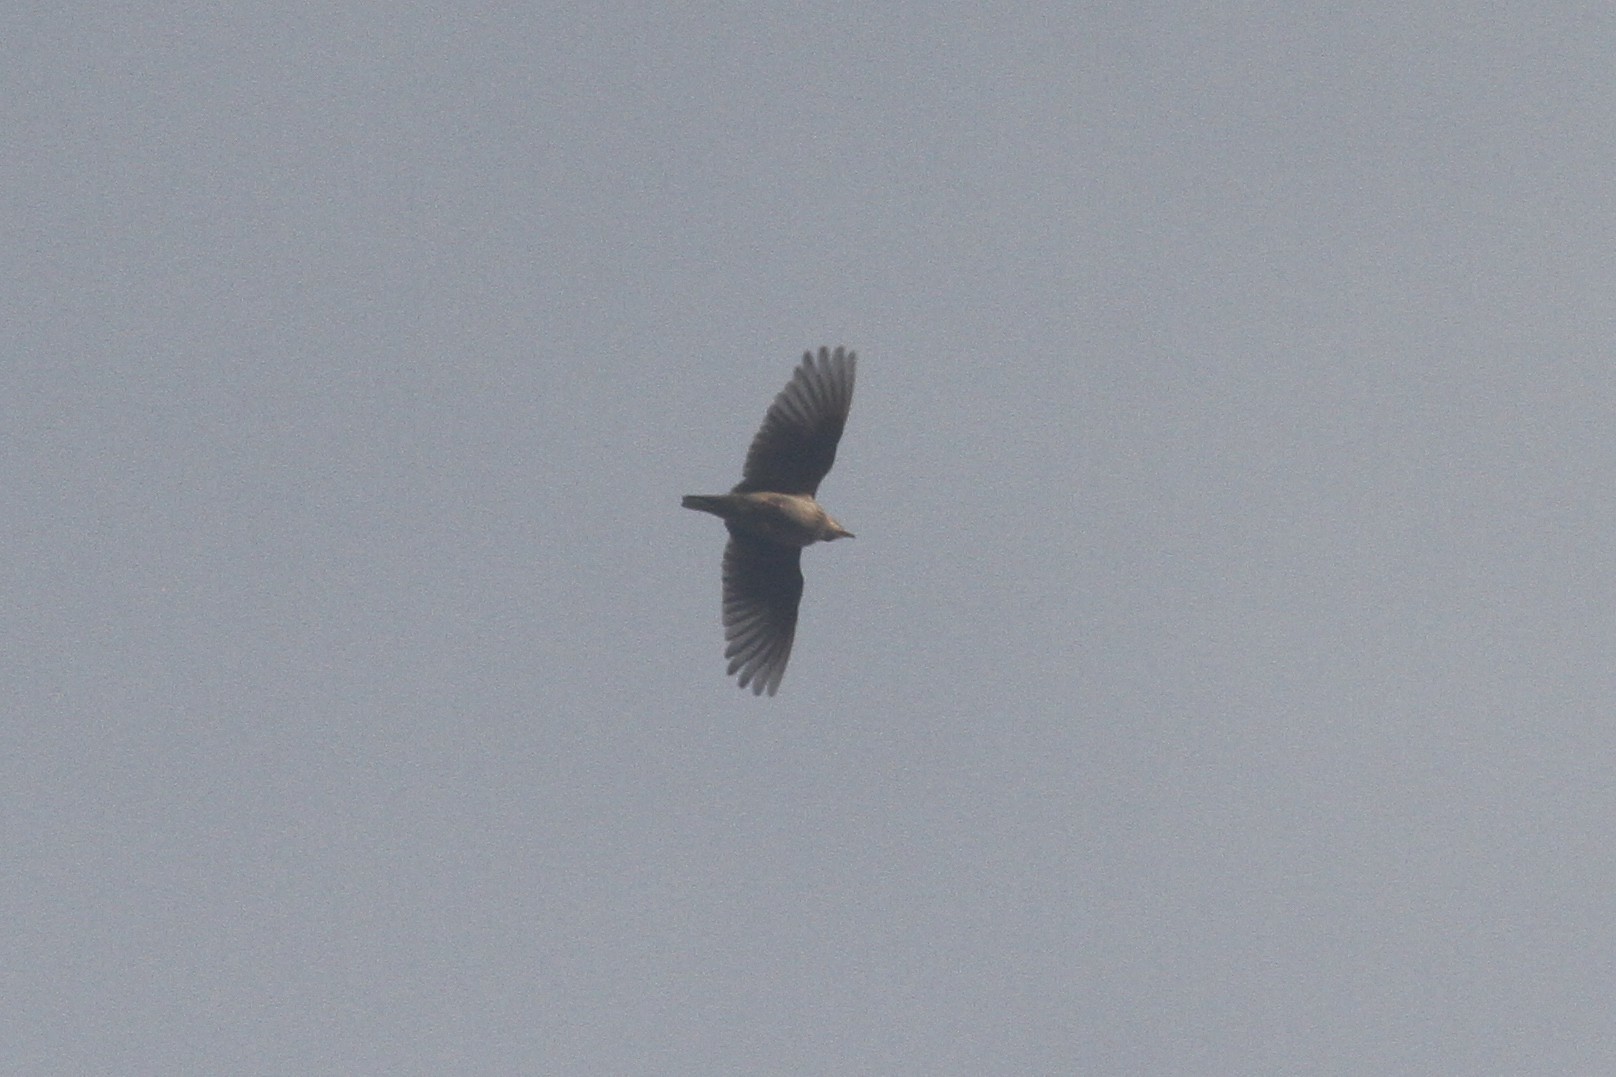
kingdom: Animalia
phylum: Chordata
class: Aves
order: Passeriformes
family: Alaudidae
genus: Alauda
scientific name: Alauda gulgula
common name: Oriental skylark
